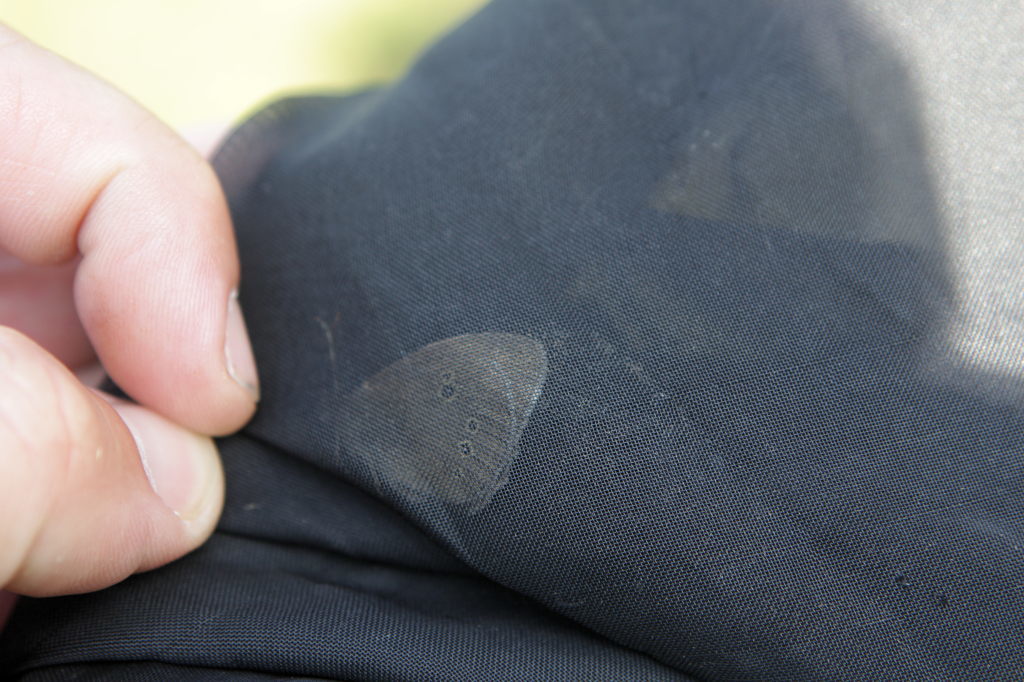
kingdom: Animalia
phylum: Arthropoda
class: Insecta
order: Lepidoptera
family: Nymphalidae
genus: Aphantopus
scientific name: Aphantopus hyperantus
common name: Ringlet
